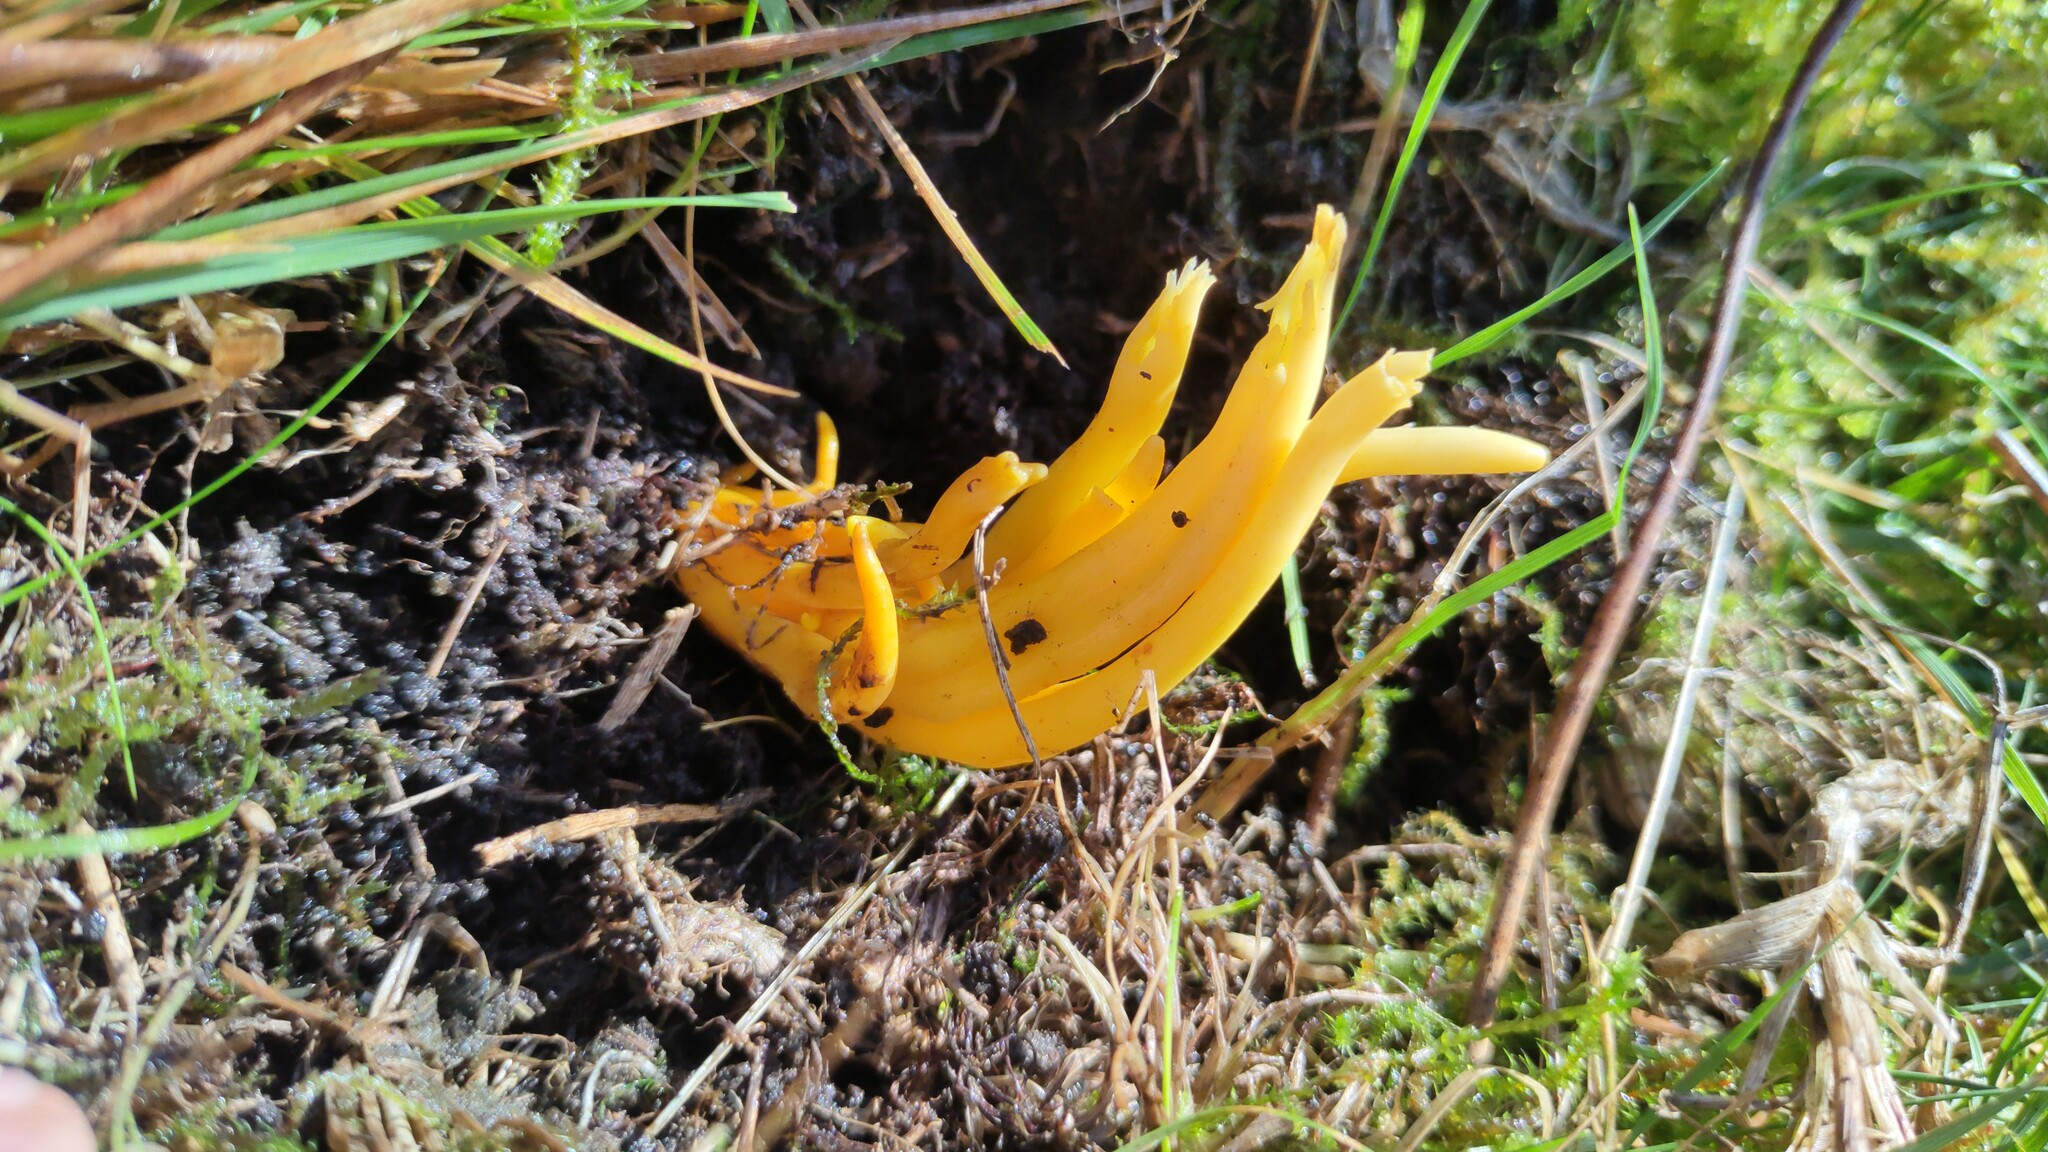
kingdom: Fungi
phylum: Basidiomycota
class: Agaricomycetes
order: Agaricales
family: Clavariaceae
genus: Clavulinopsis
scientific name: Clavulinopsis fusiformis
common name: Golden spindles
